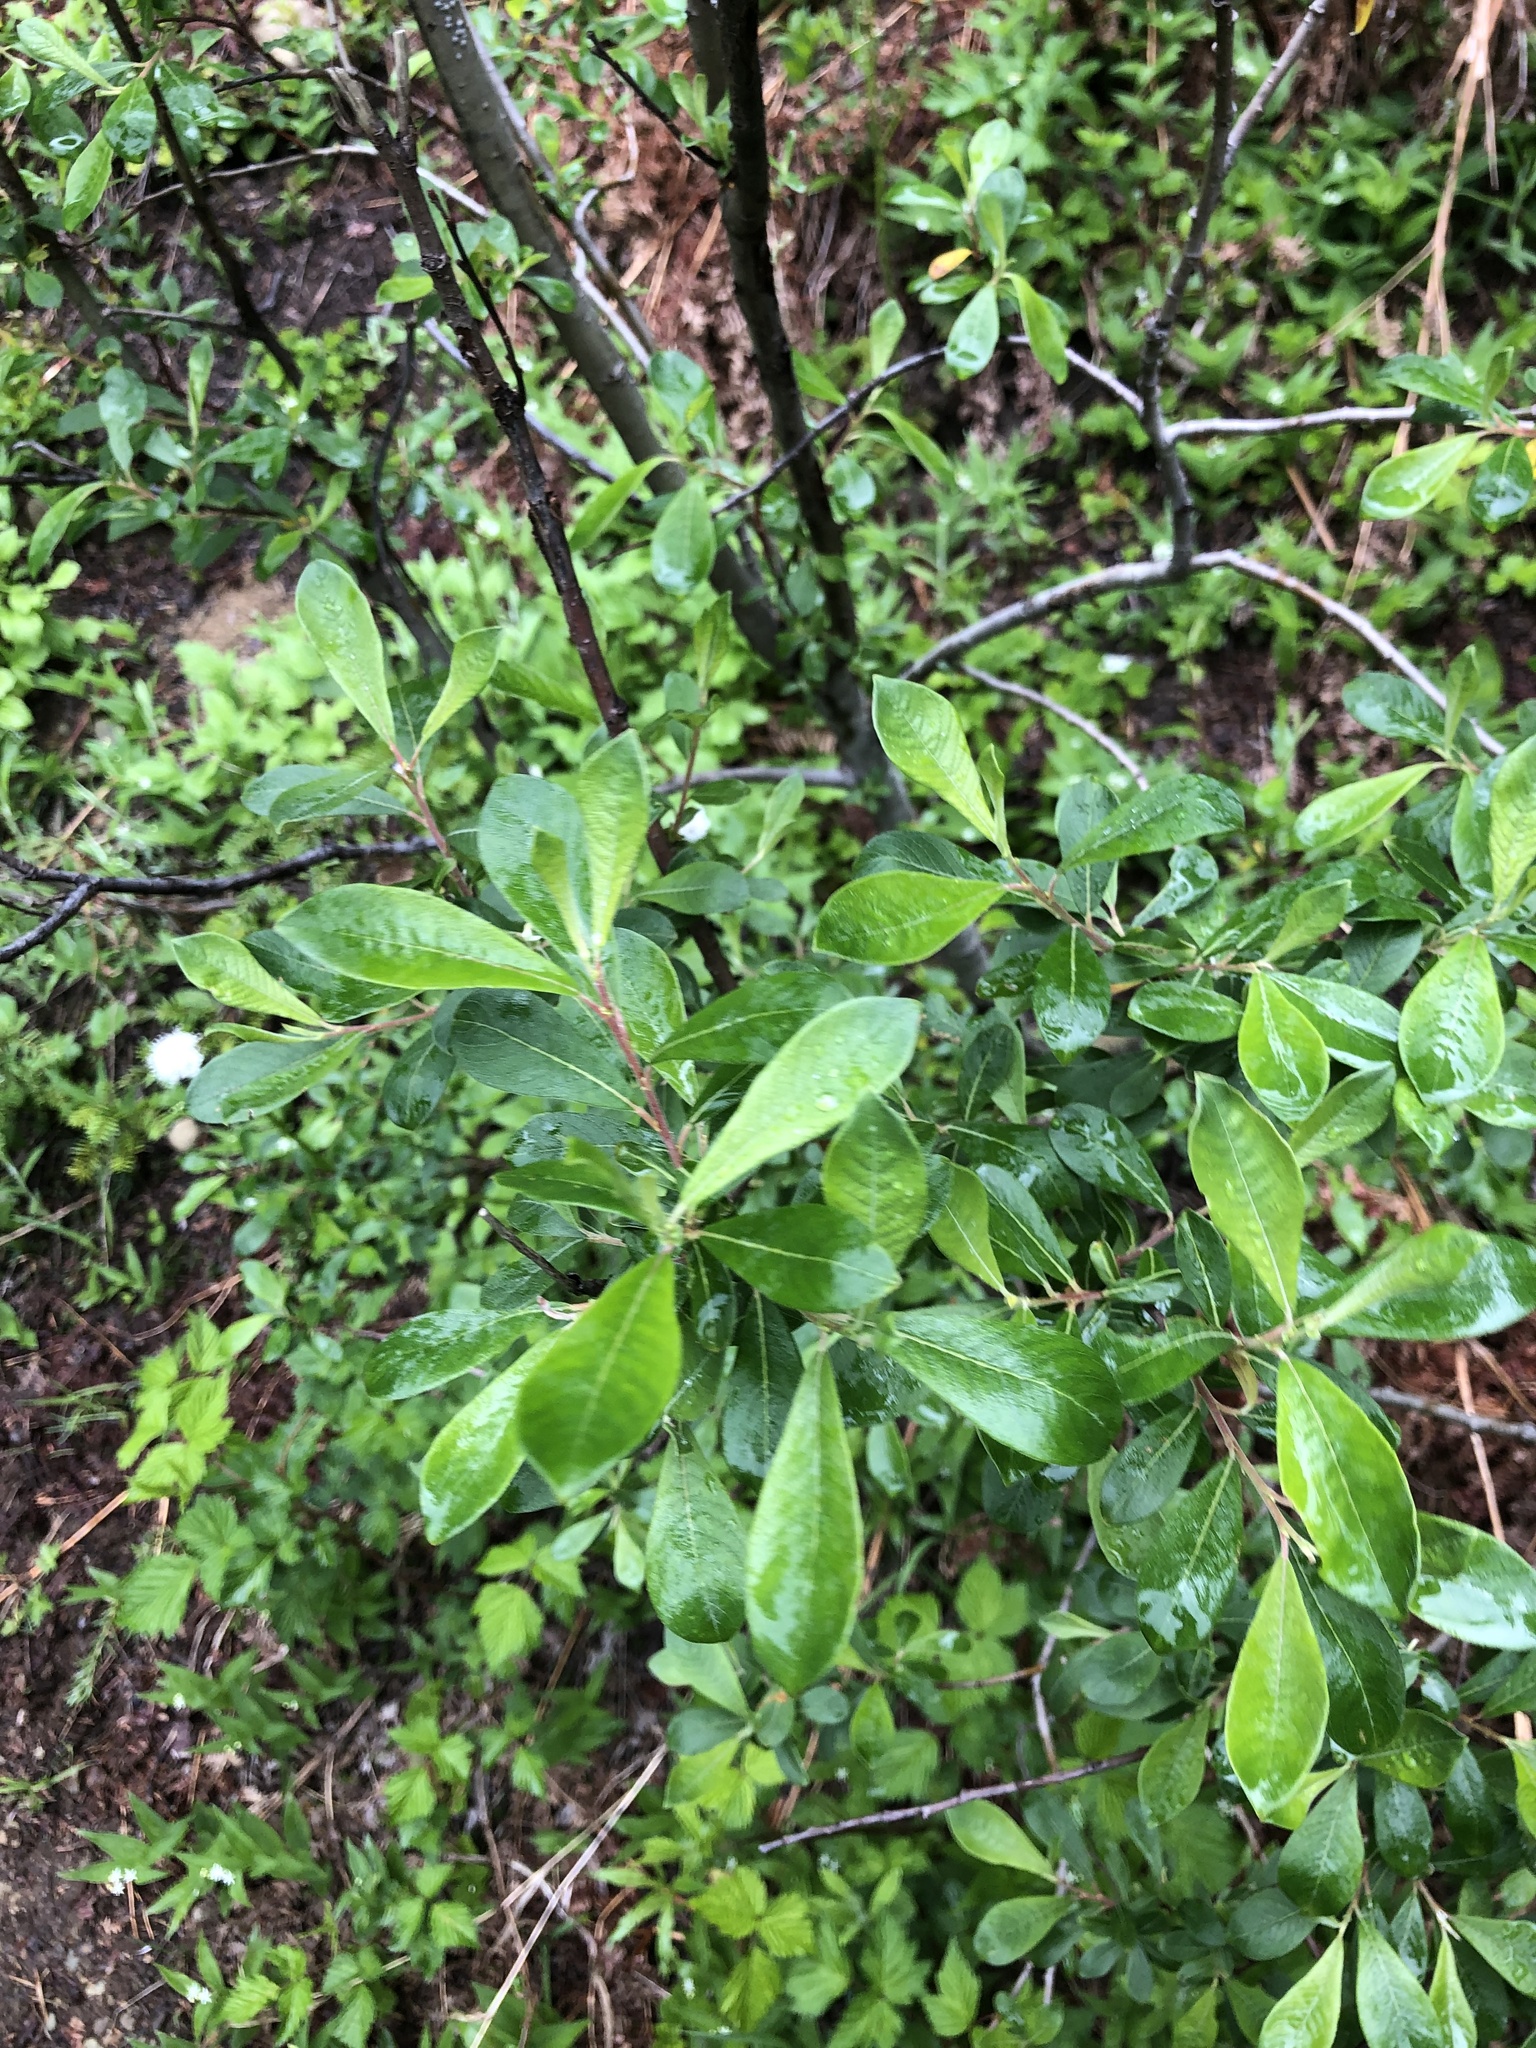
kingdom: Plantae
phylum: Tracheophyta
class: Magnoliopsida
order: Malpighiales
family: Salicaceae
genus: Salix
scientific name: Salix sitchensis
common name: Sitka willow
